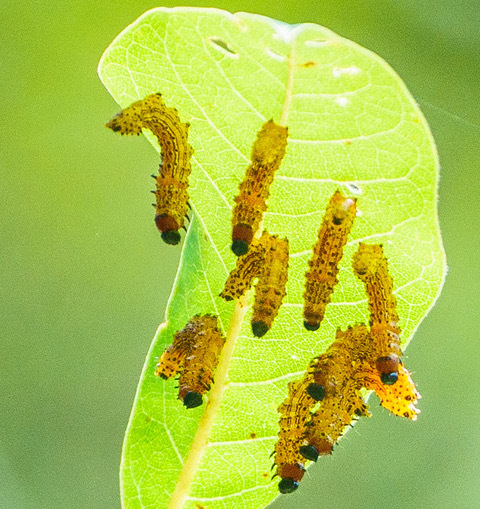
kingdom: Animalia
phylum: Arthropoda
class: Insecta
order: Lepidoptera
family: Notodontidae
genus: Schizura
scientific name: Schizura
